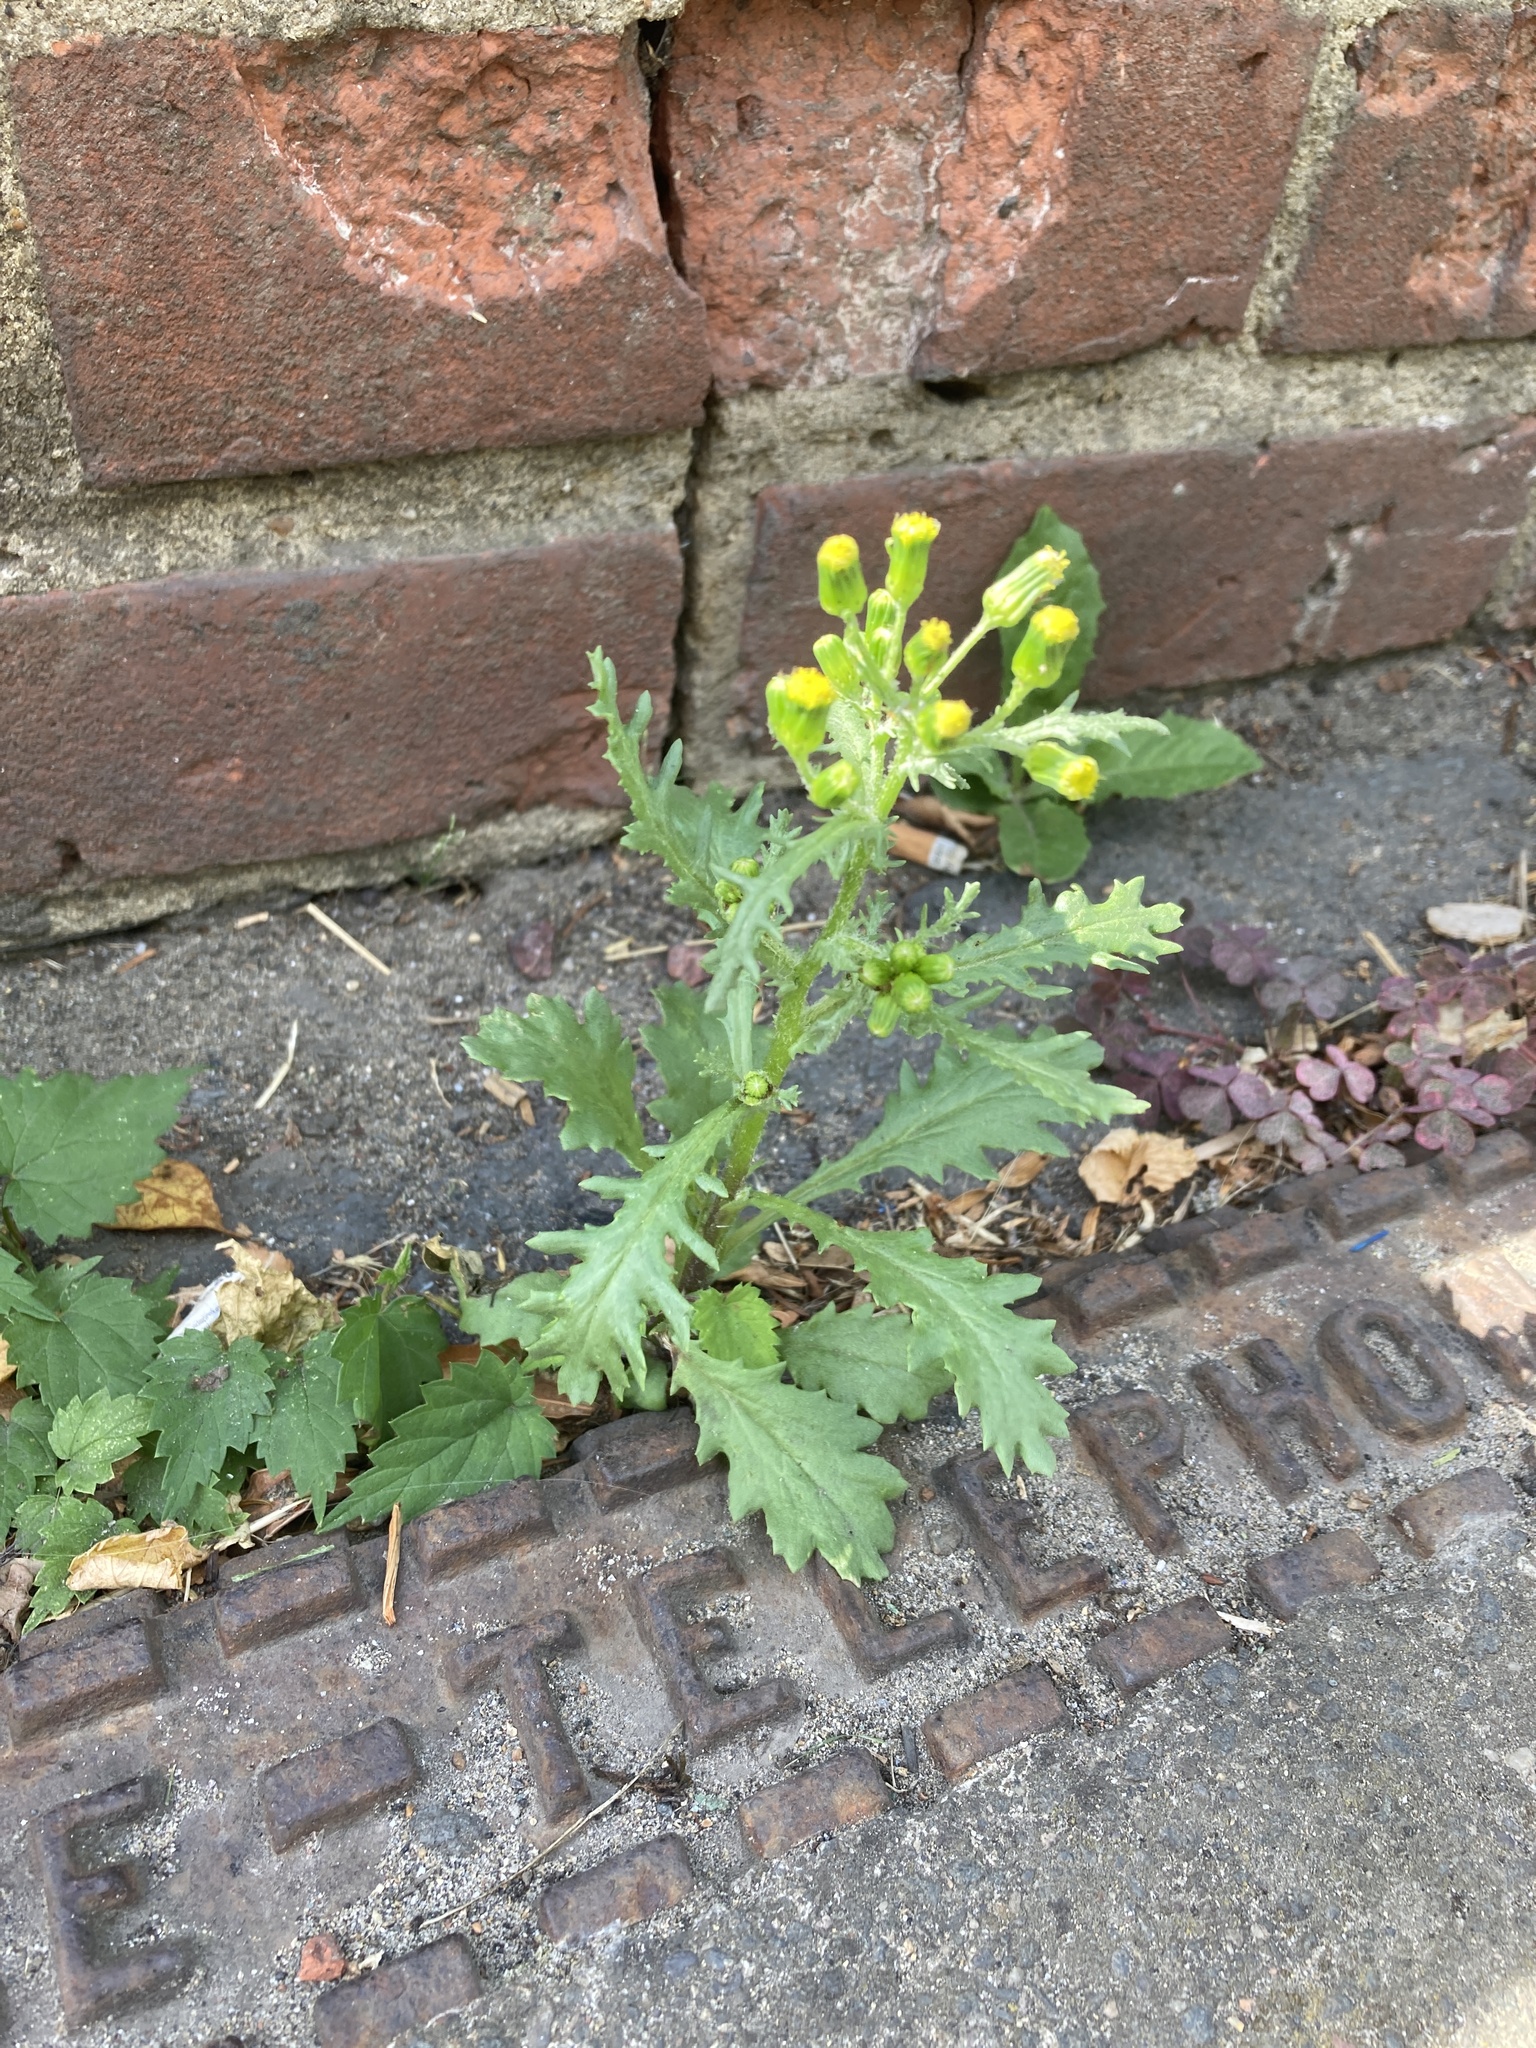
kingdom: Plantae
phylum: Tracheophyta
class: Magnoliopsida
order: Asterales
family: Asteraceae
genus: Senecio
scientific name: Senecio vulgaris
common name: Old-man-in-the-spring
